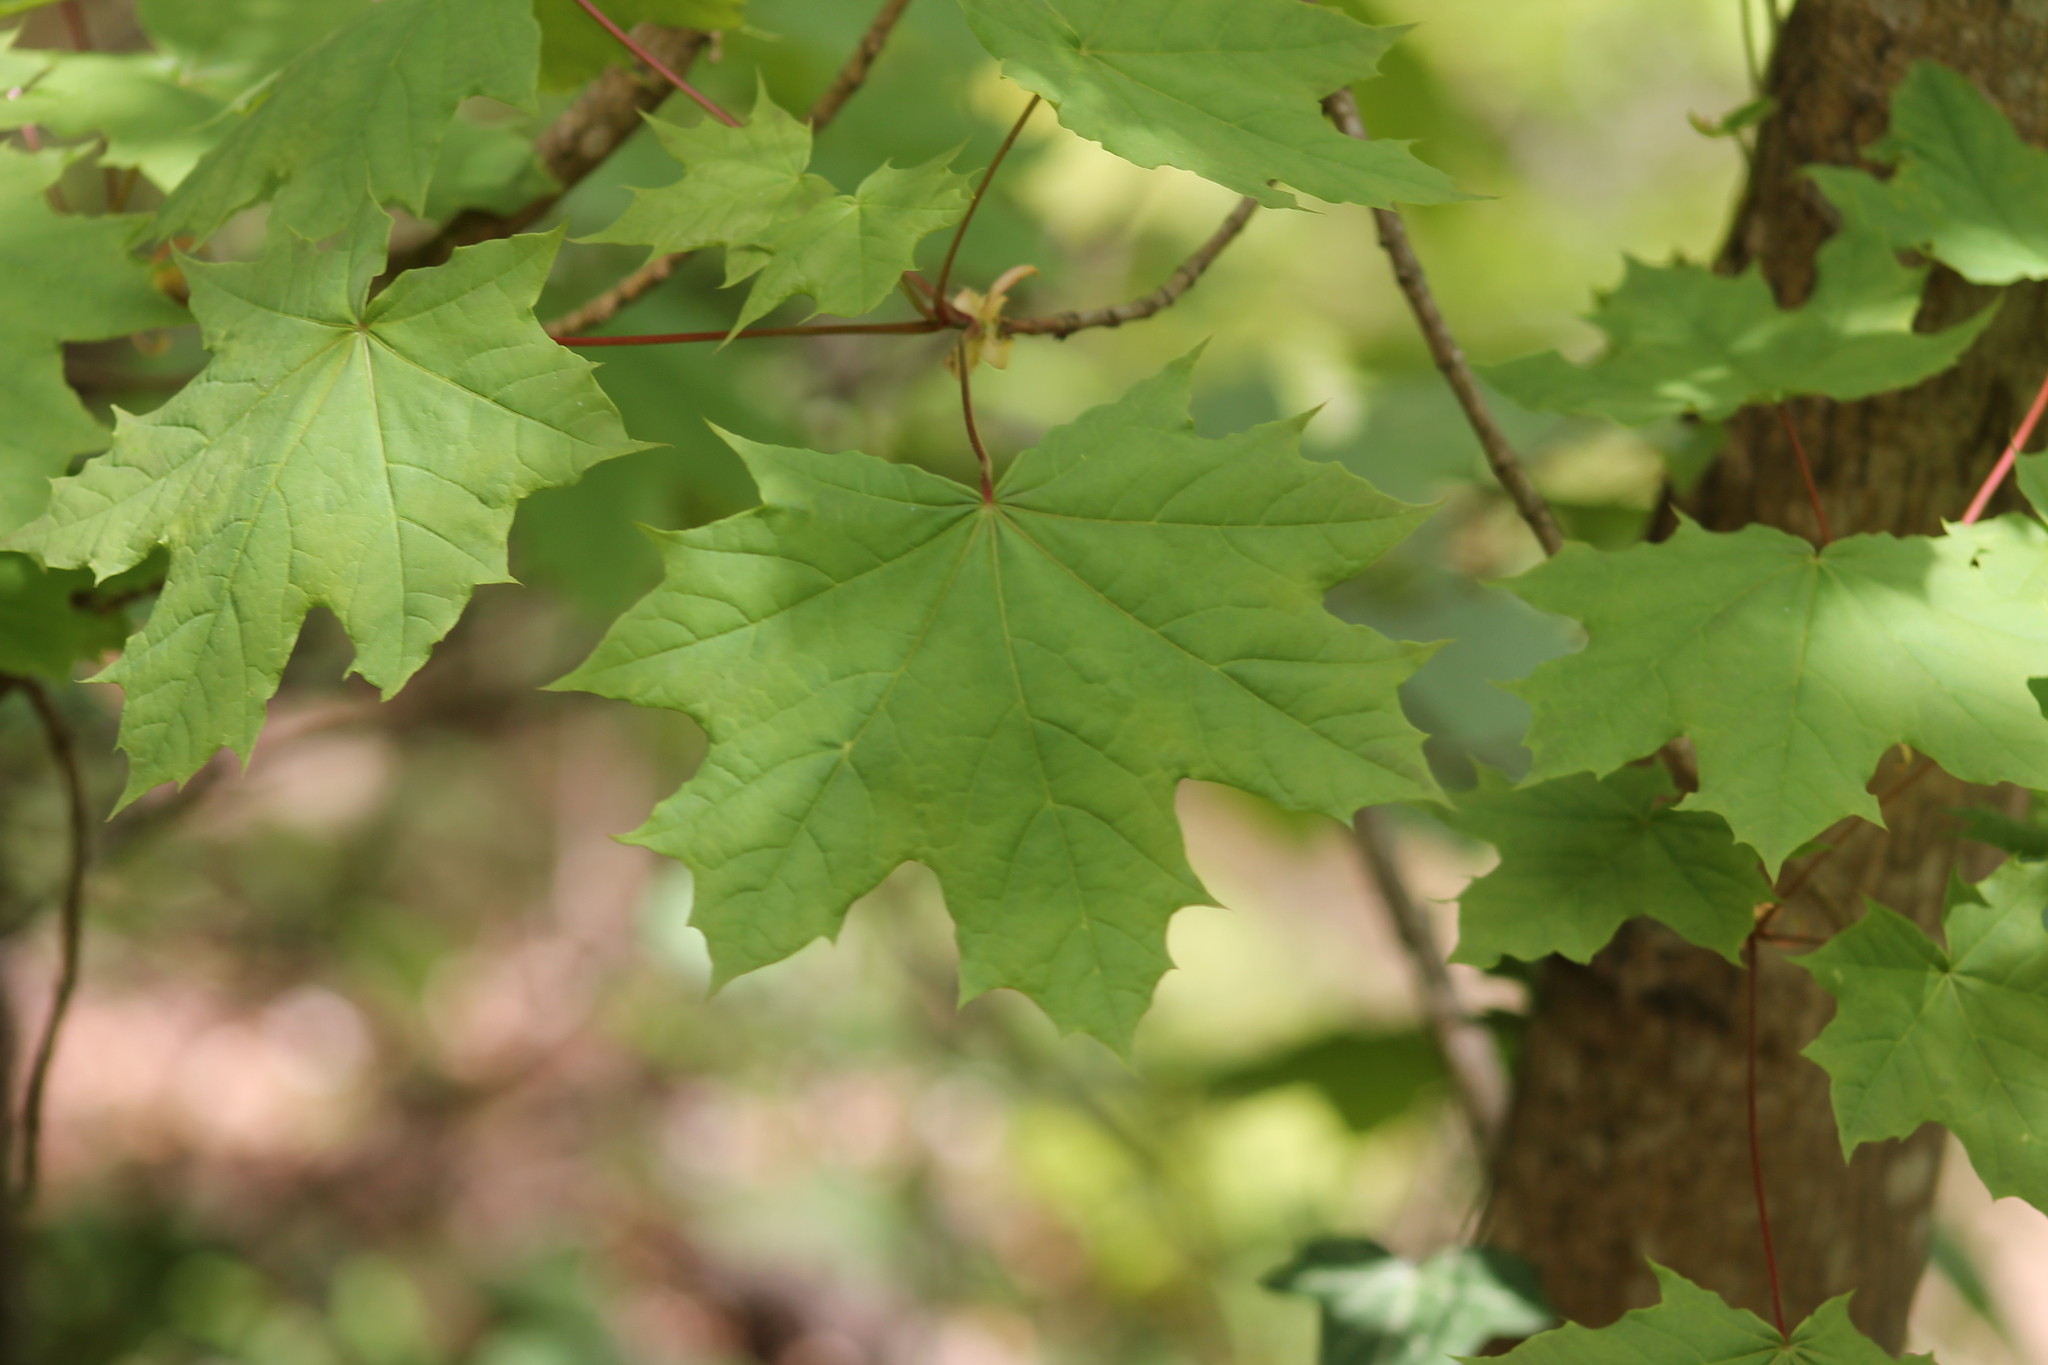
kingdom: Plantae
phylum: Tracheophyta
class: Magnoliopsida
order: Sapindales
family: Sapindaceae
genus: Acer
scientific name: Acer pseudoplatanus
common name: Sycamore
